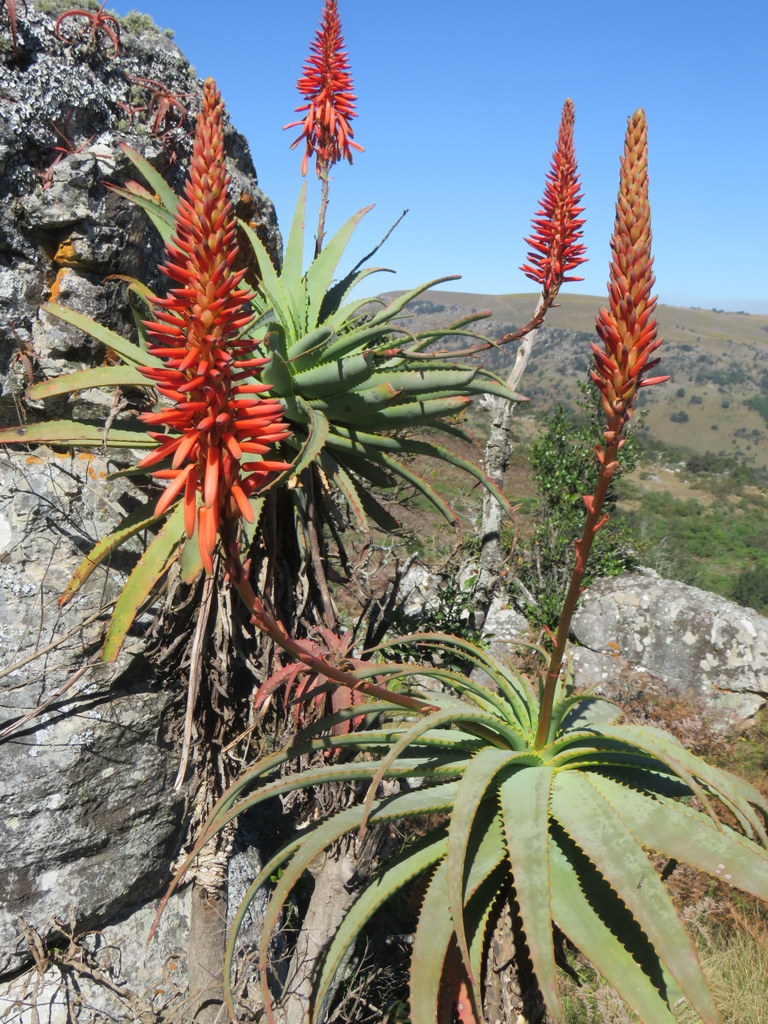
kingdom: Plantae
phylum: Tracheophyta
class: Liliopsida
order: Asparagales
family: Asphodelaceae
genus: Aloe
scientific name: Aloe arborescens
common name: Candelabra aloe
